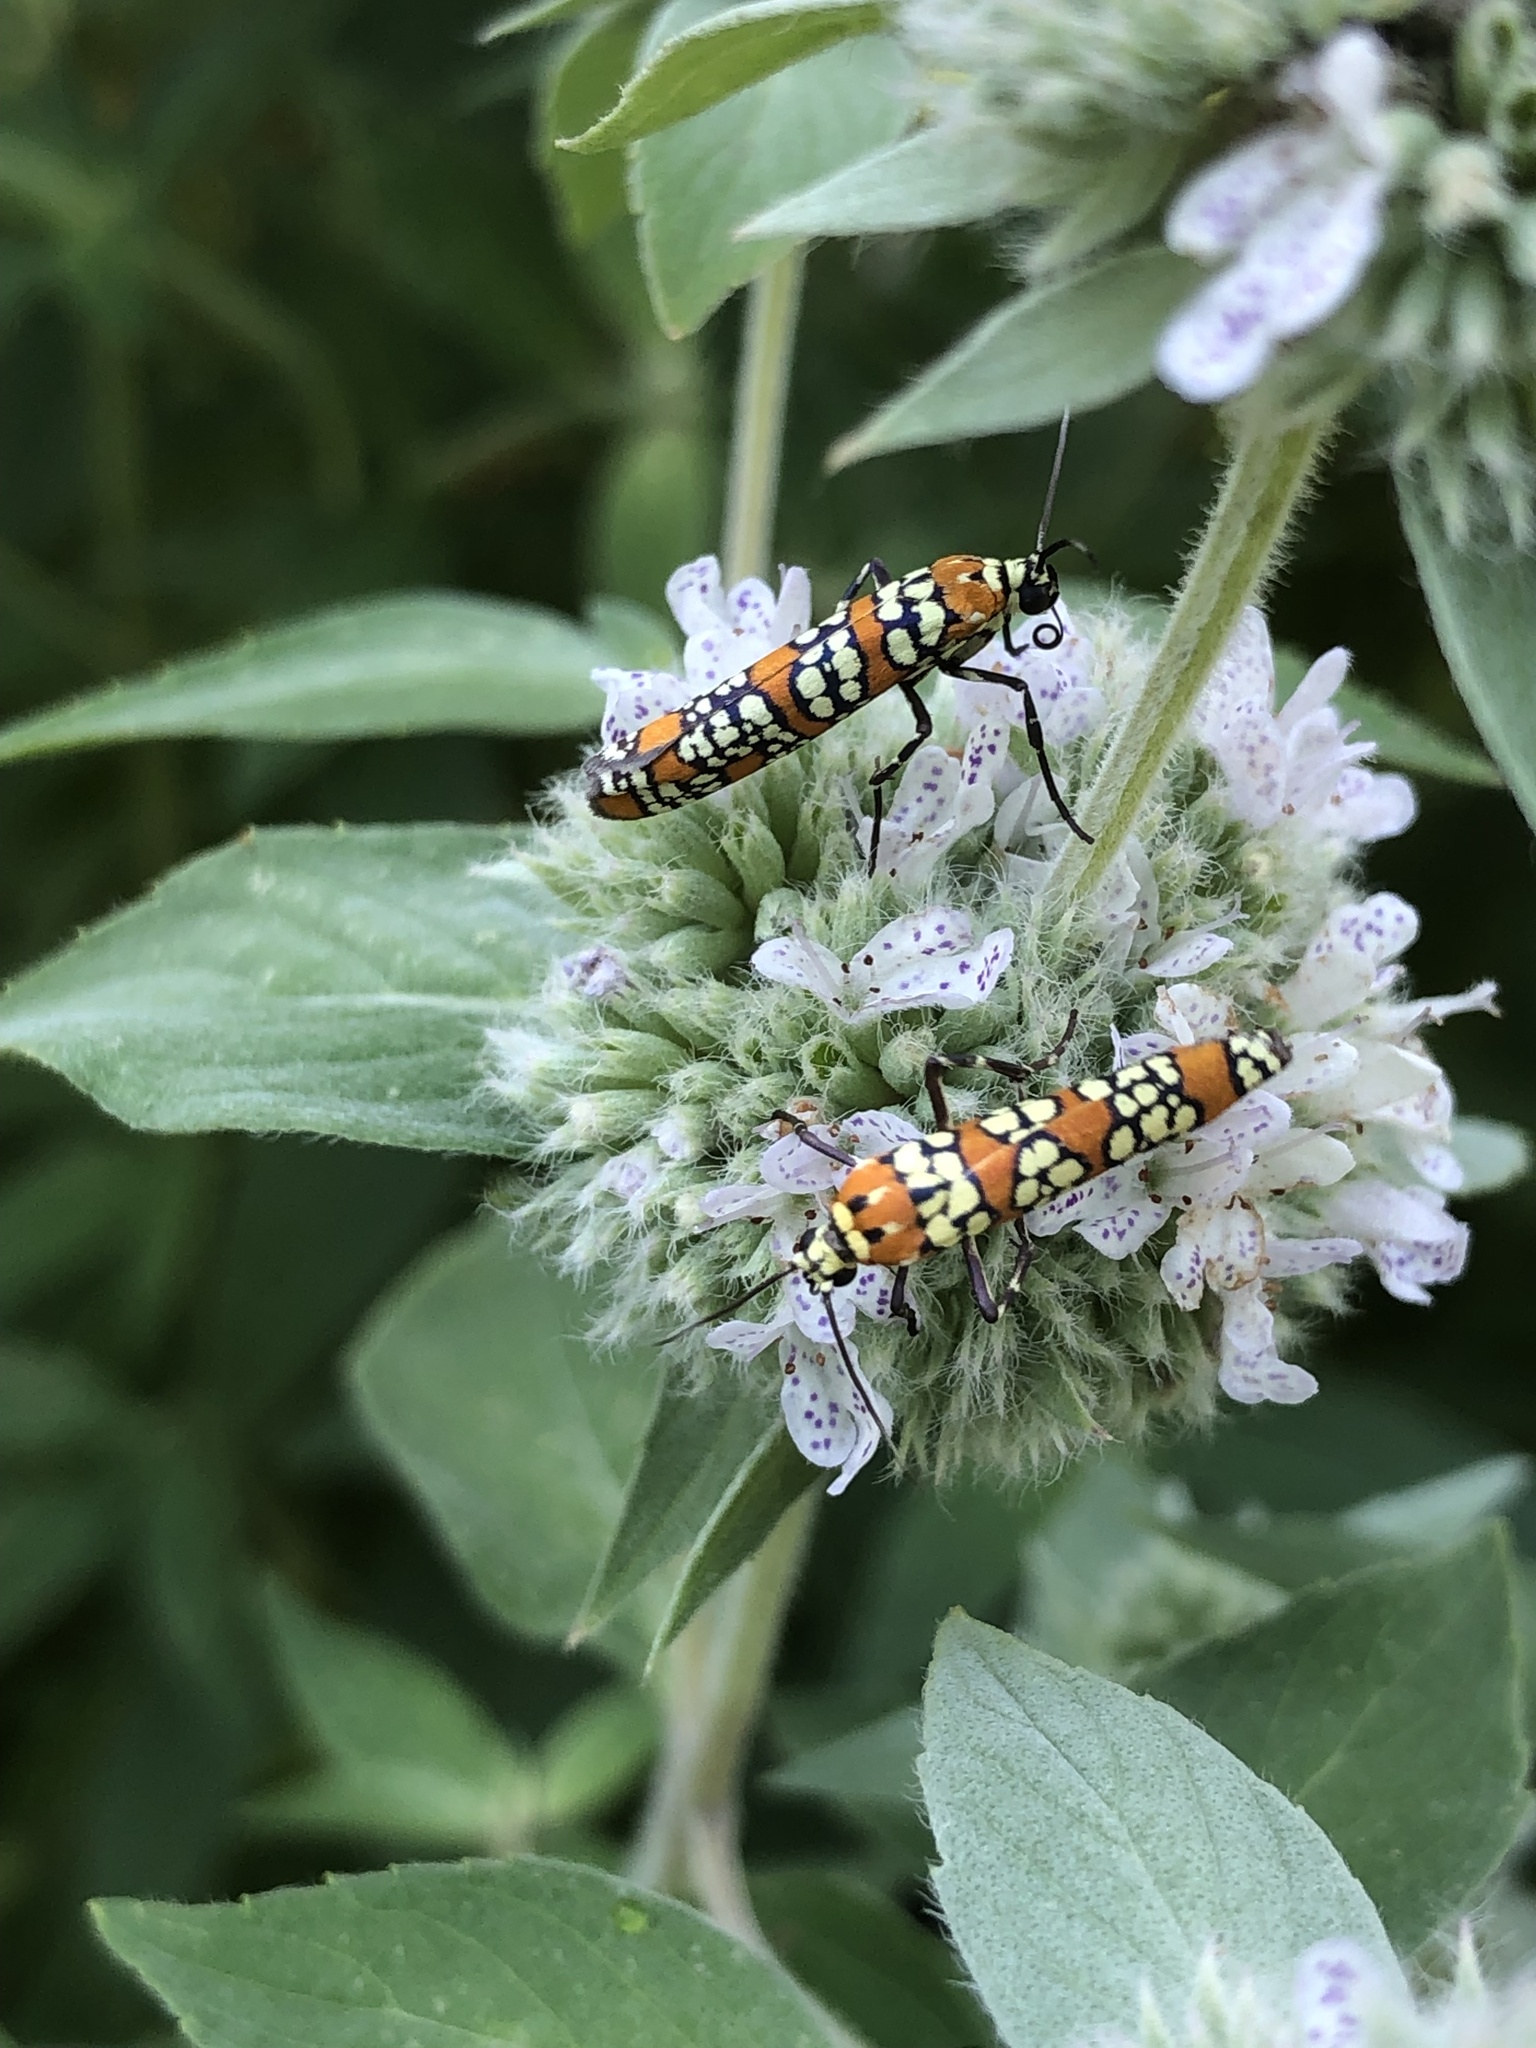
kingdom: Animalia
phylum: Arthropoda
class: Insecta
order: Lepidoptera
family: Attevidae
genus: Atteva
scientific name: Atteva punctella
